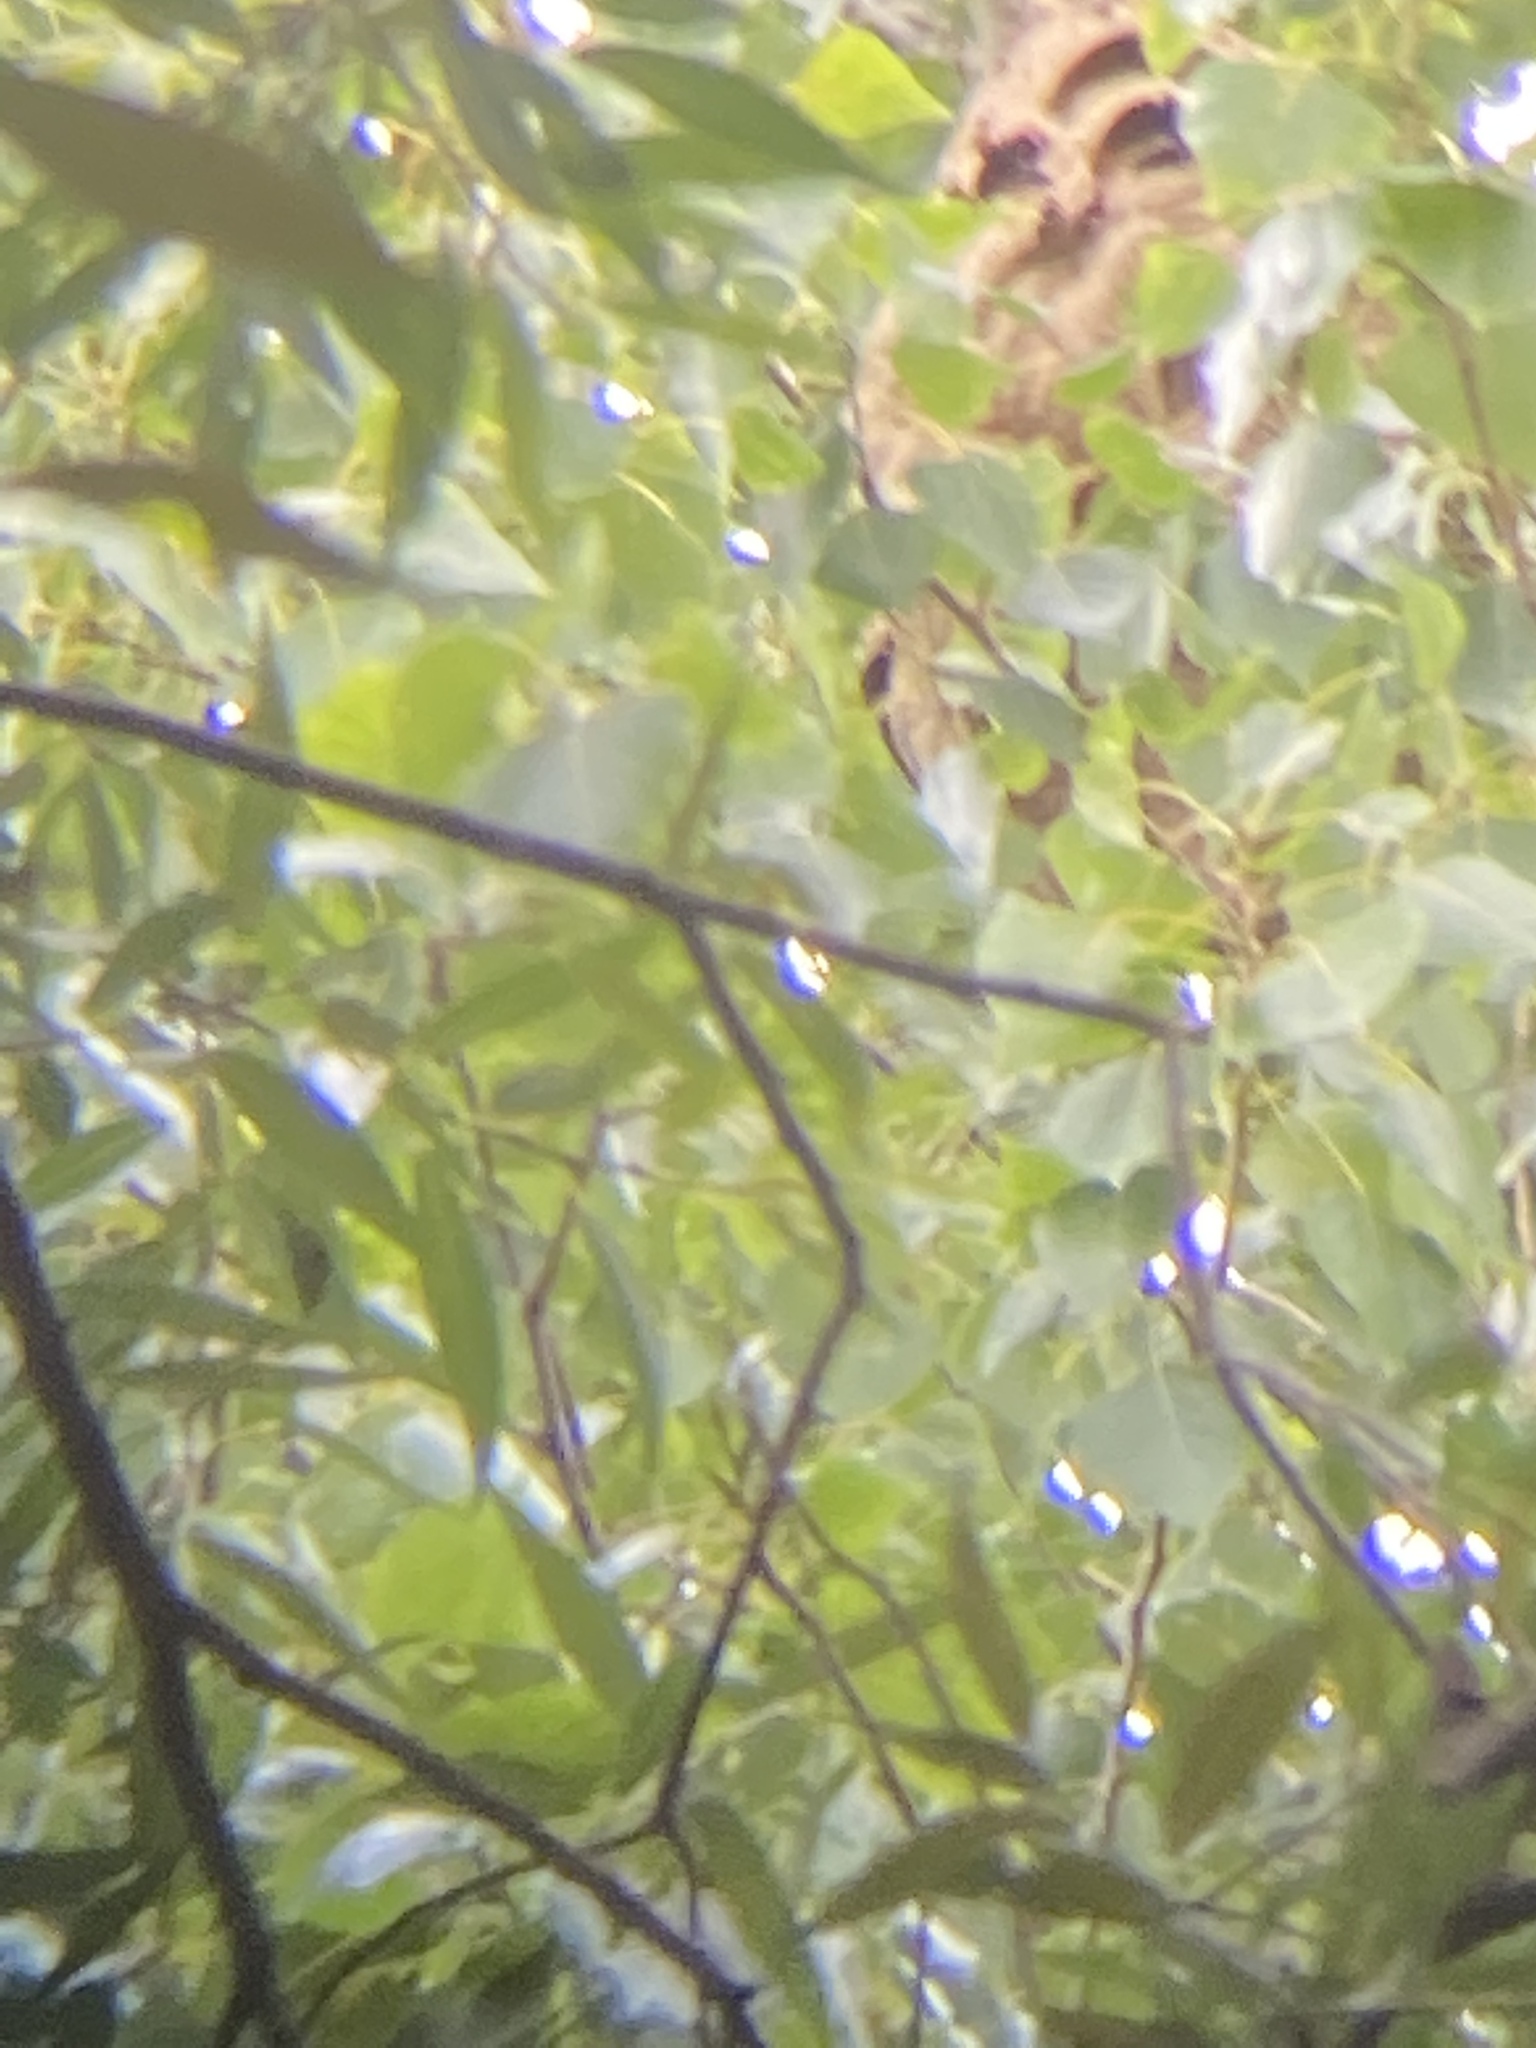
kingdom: Animalia
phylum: Arthropoda
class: Insecta
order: Hymenoptera
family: Vespidae
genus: Vespa
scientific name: Vespa velutina
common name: Asian hornet
